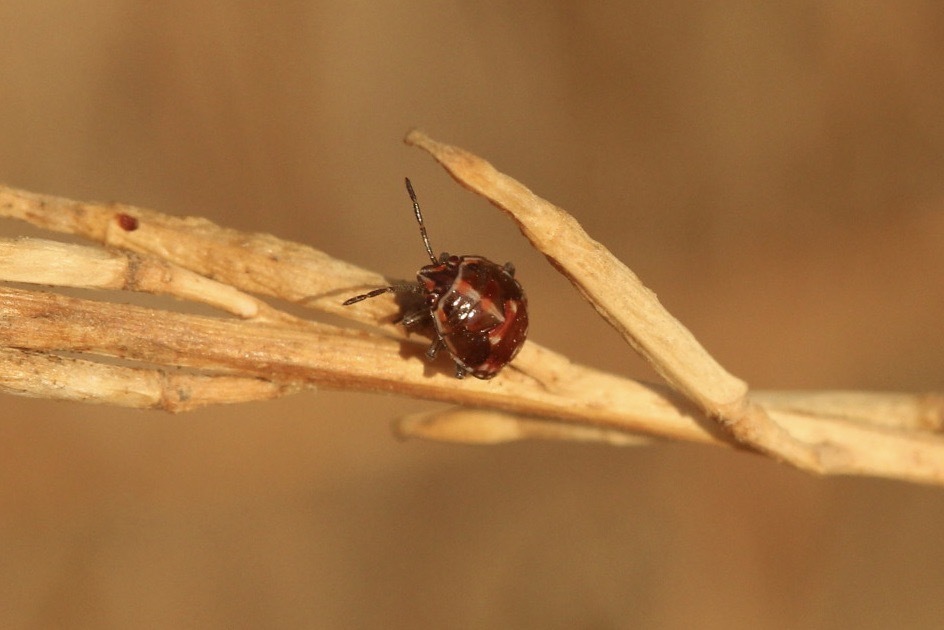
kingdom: Animalia
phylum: Arthropoda
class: Insecta
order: Hemiptera
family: Pentatomidae
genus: Bagrada
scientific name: Bagrada hilaris
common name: Bagrada bug
